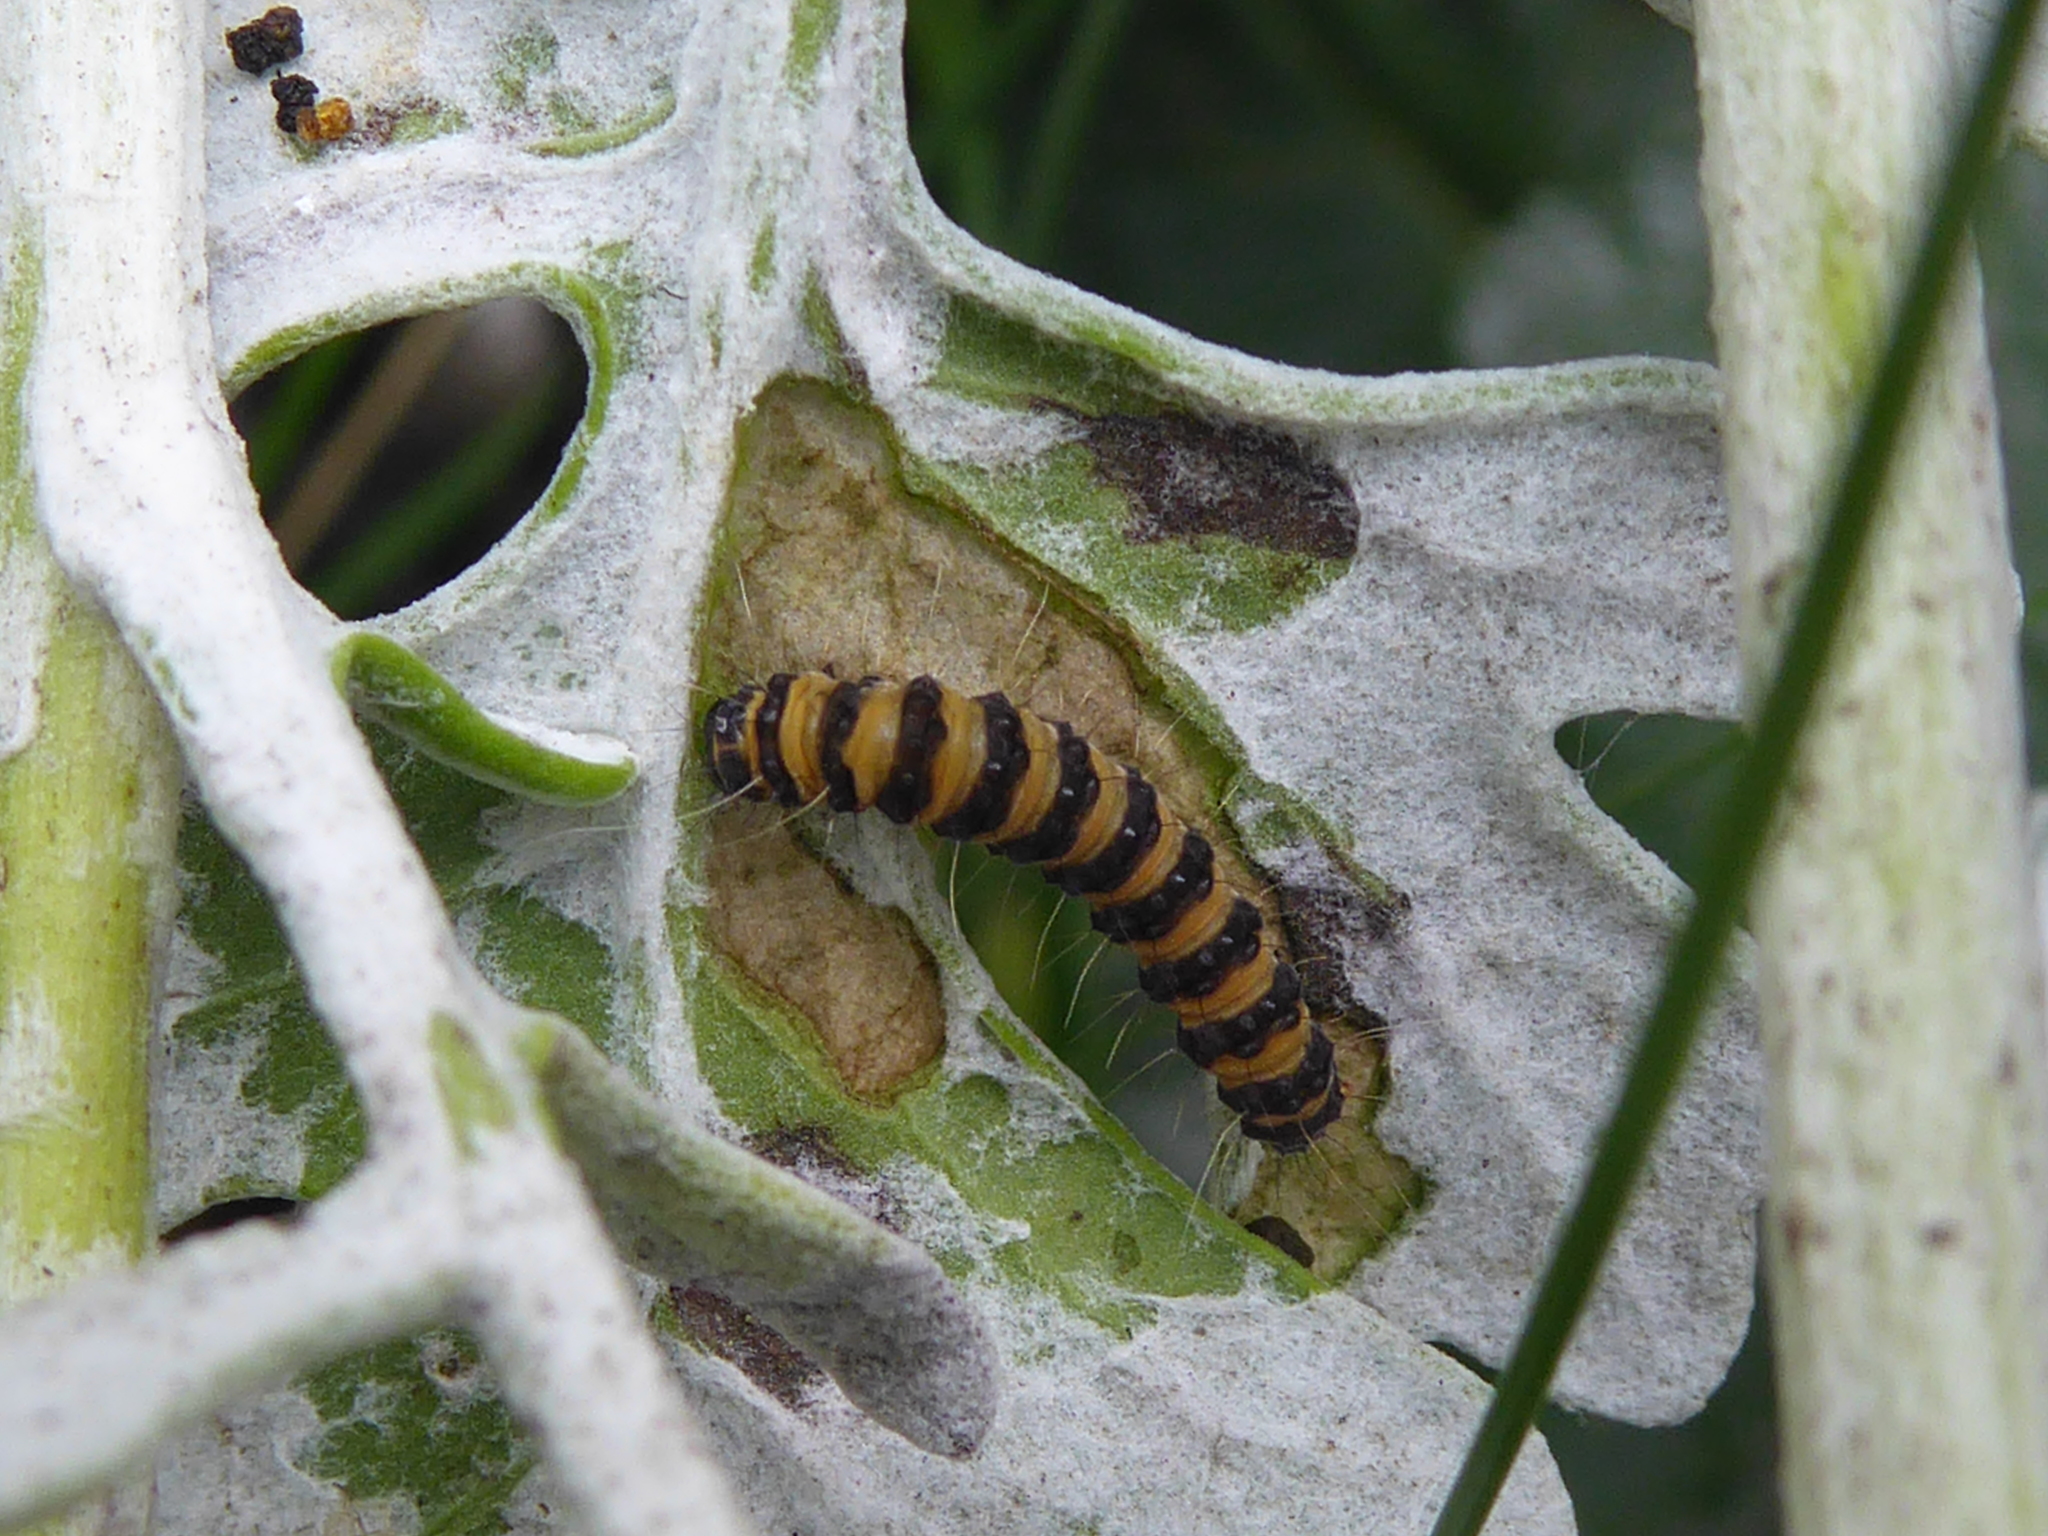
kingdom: Animalia
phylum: Arthropoda
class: Insecta
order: Lepidoptera
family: Erebidae
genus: Tyria
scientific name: Tyria jacobaeae
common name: Cinnabar
